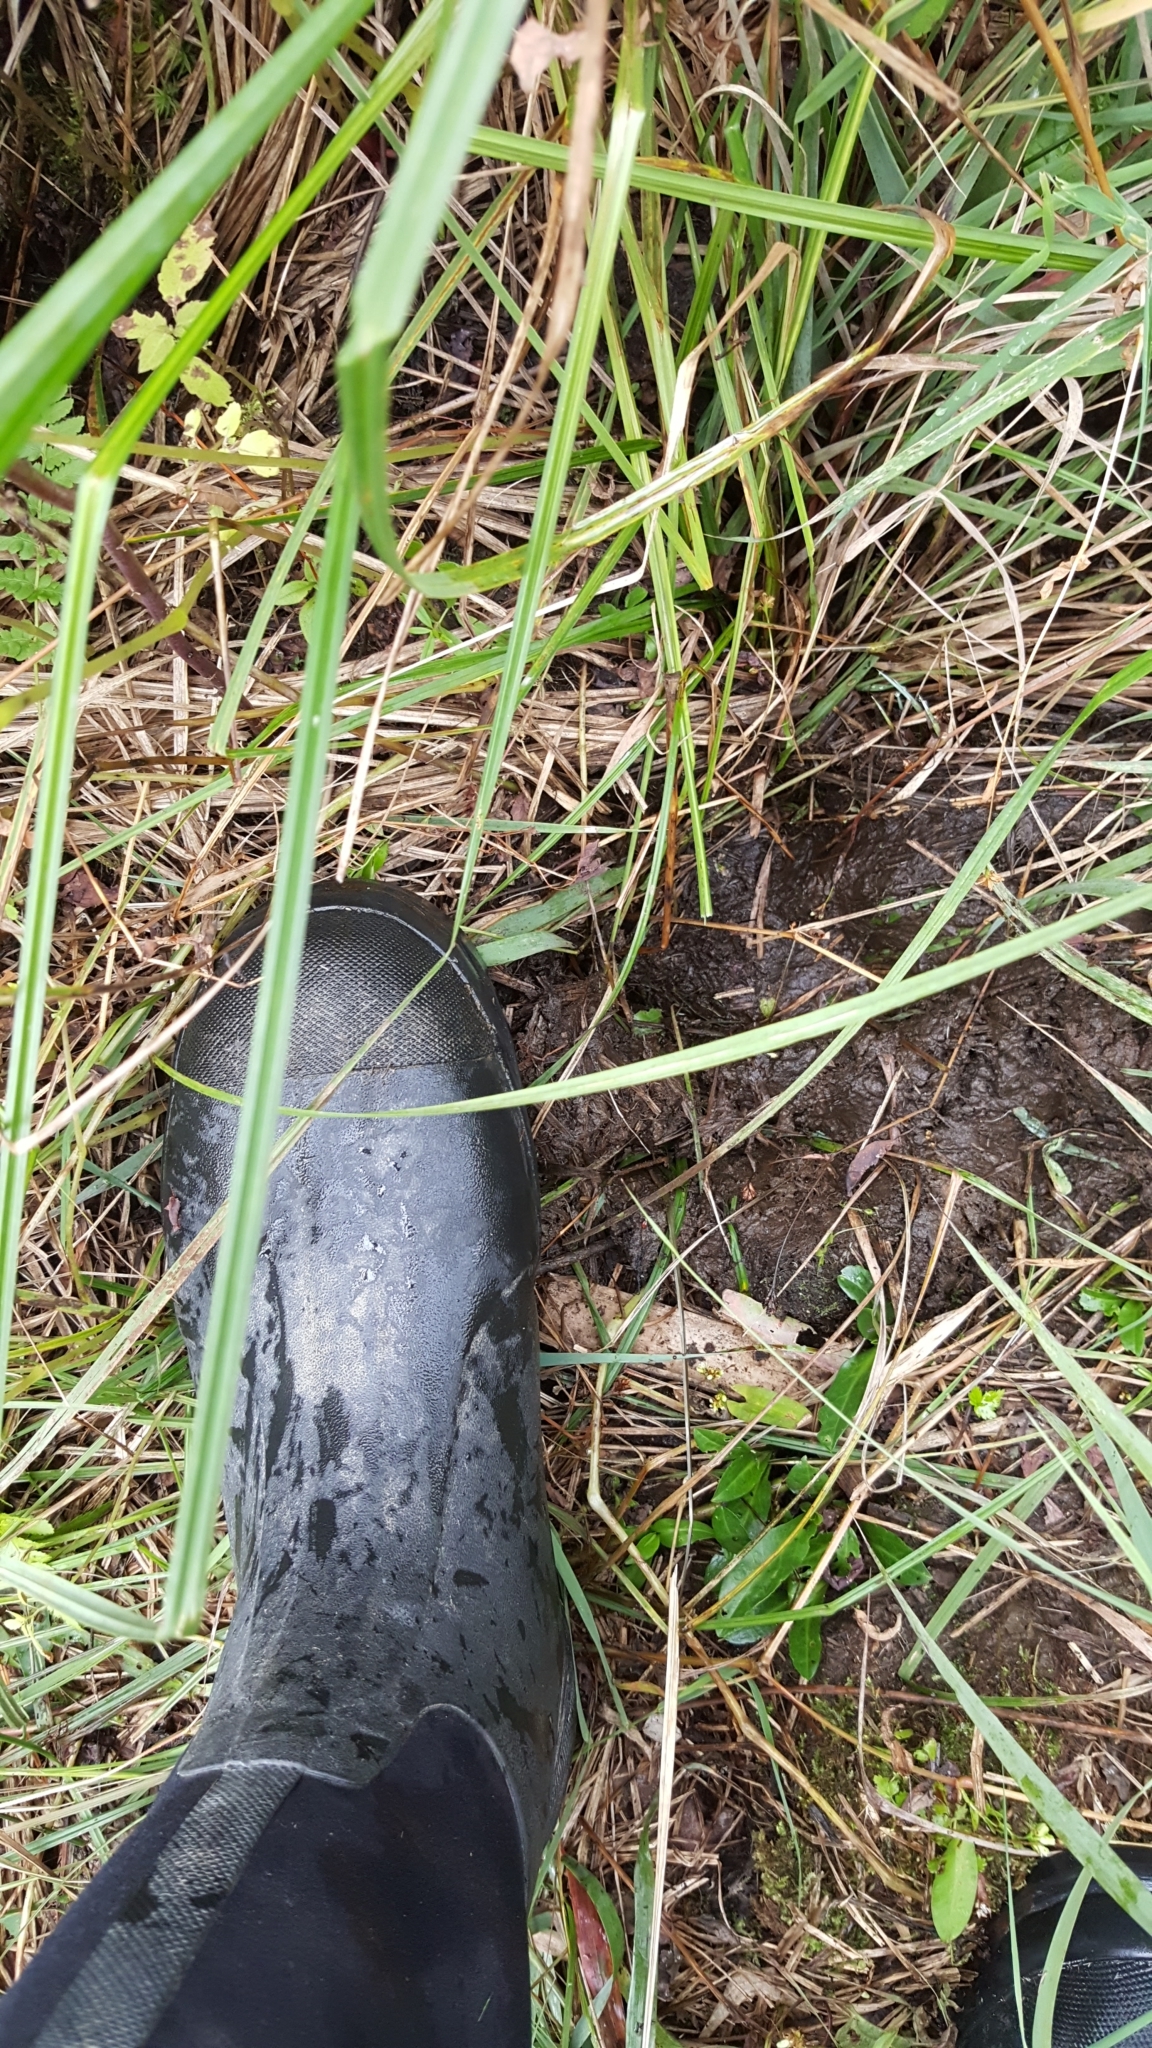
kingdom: Animalia
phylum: Chordata
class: Mammalia
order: Artiodactyla
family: Cervidae
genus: Alces
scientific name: Alces alces
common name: Moose
